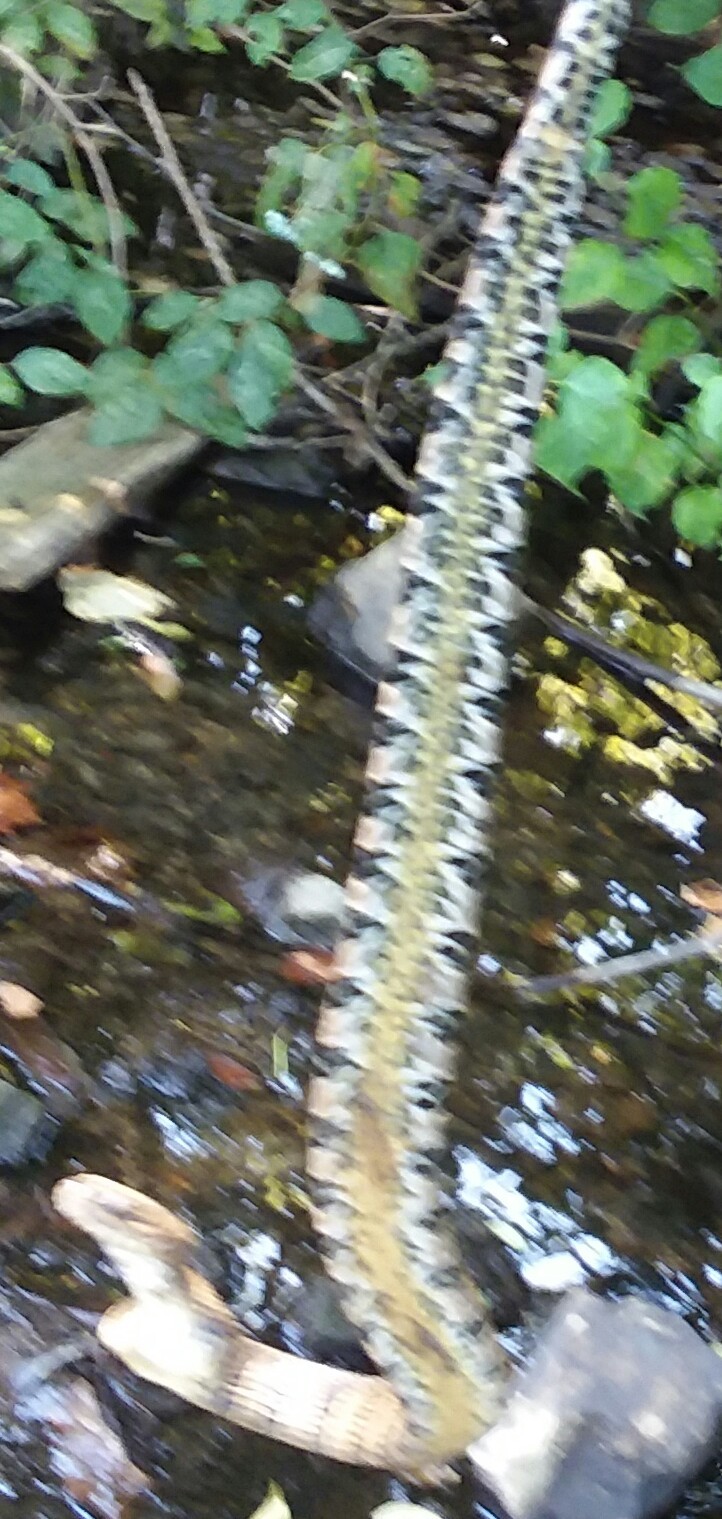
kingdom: Animalia
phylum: Chordata
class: Squamata
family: Colubridae
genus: Nerodia
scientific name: Nerodia sipedon
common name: Northern water snake
